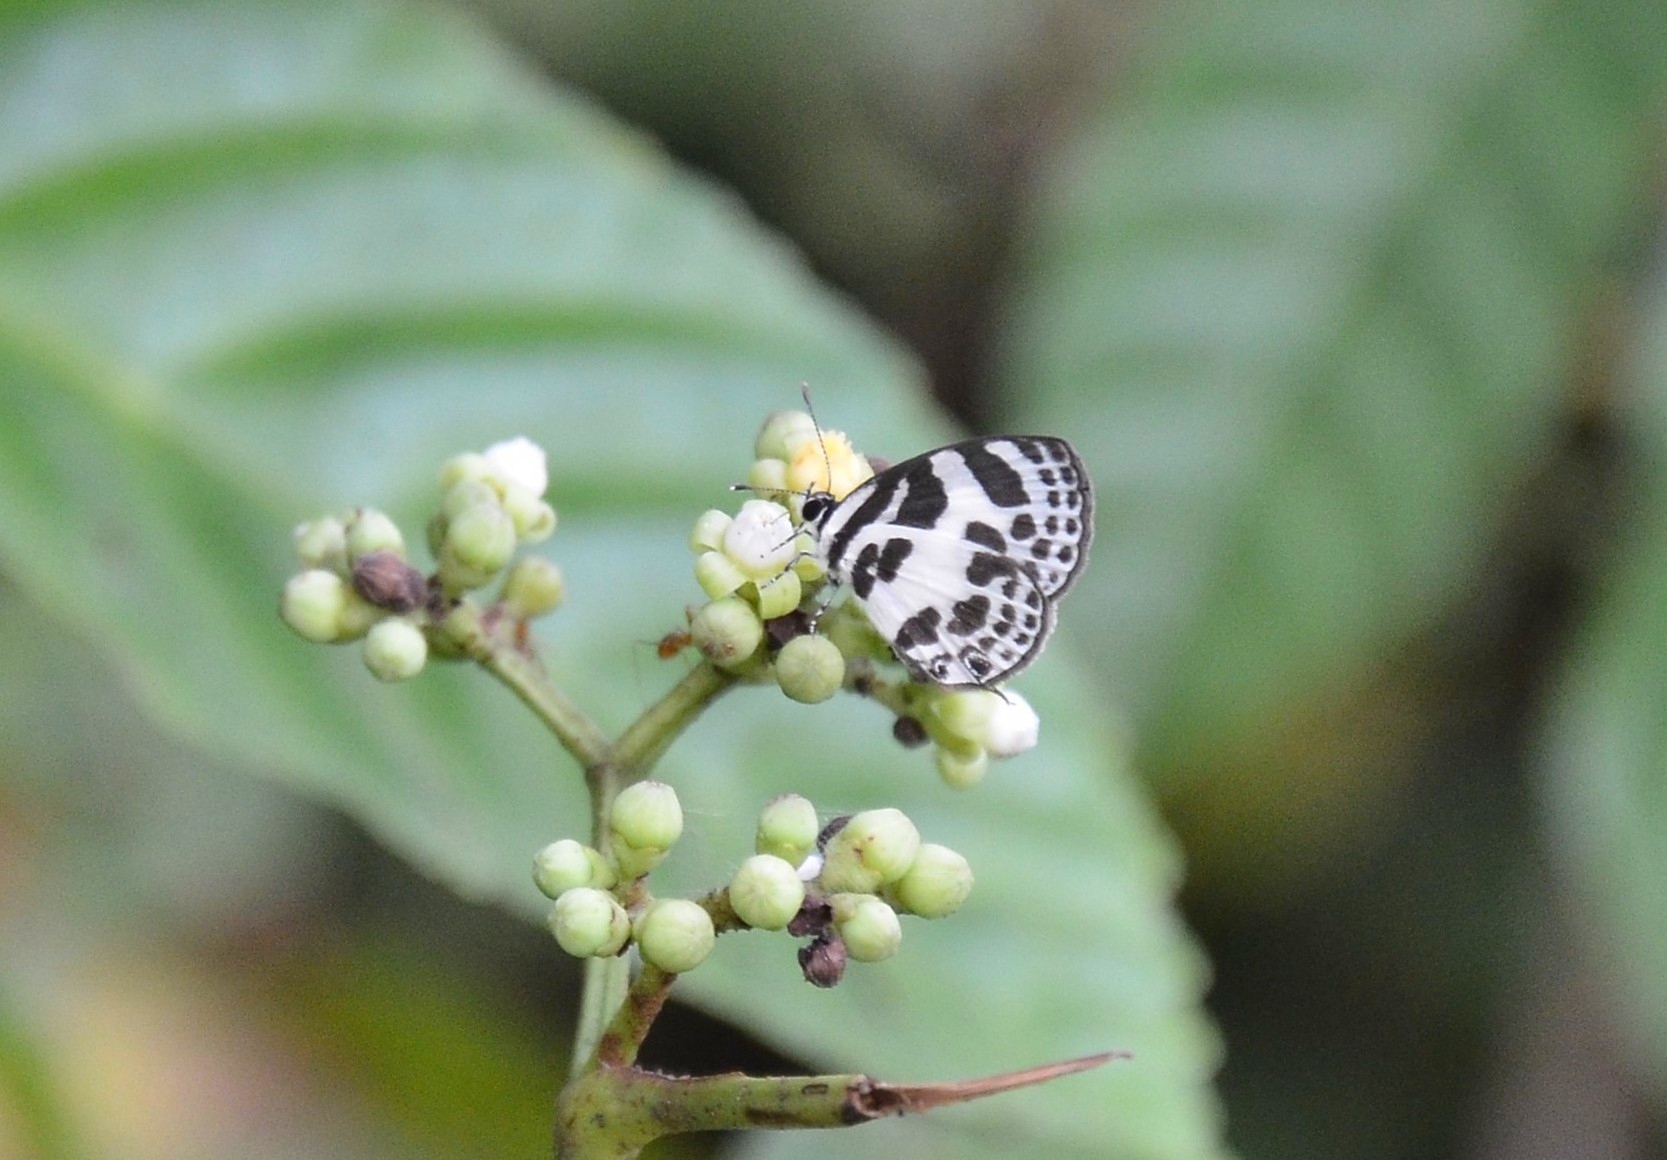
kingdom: Animalia
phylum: Arthropoda
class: Insecta
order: Lepidoptera
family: Lycaenidae
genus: Discolampa
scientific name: Discolampa ethion
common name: Banded blue pierrot
